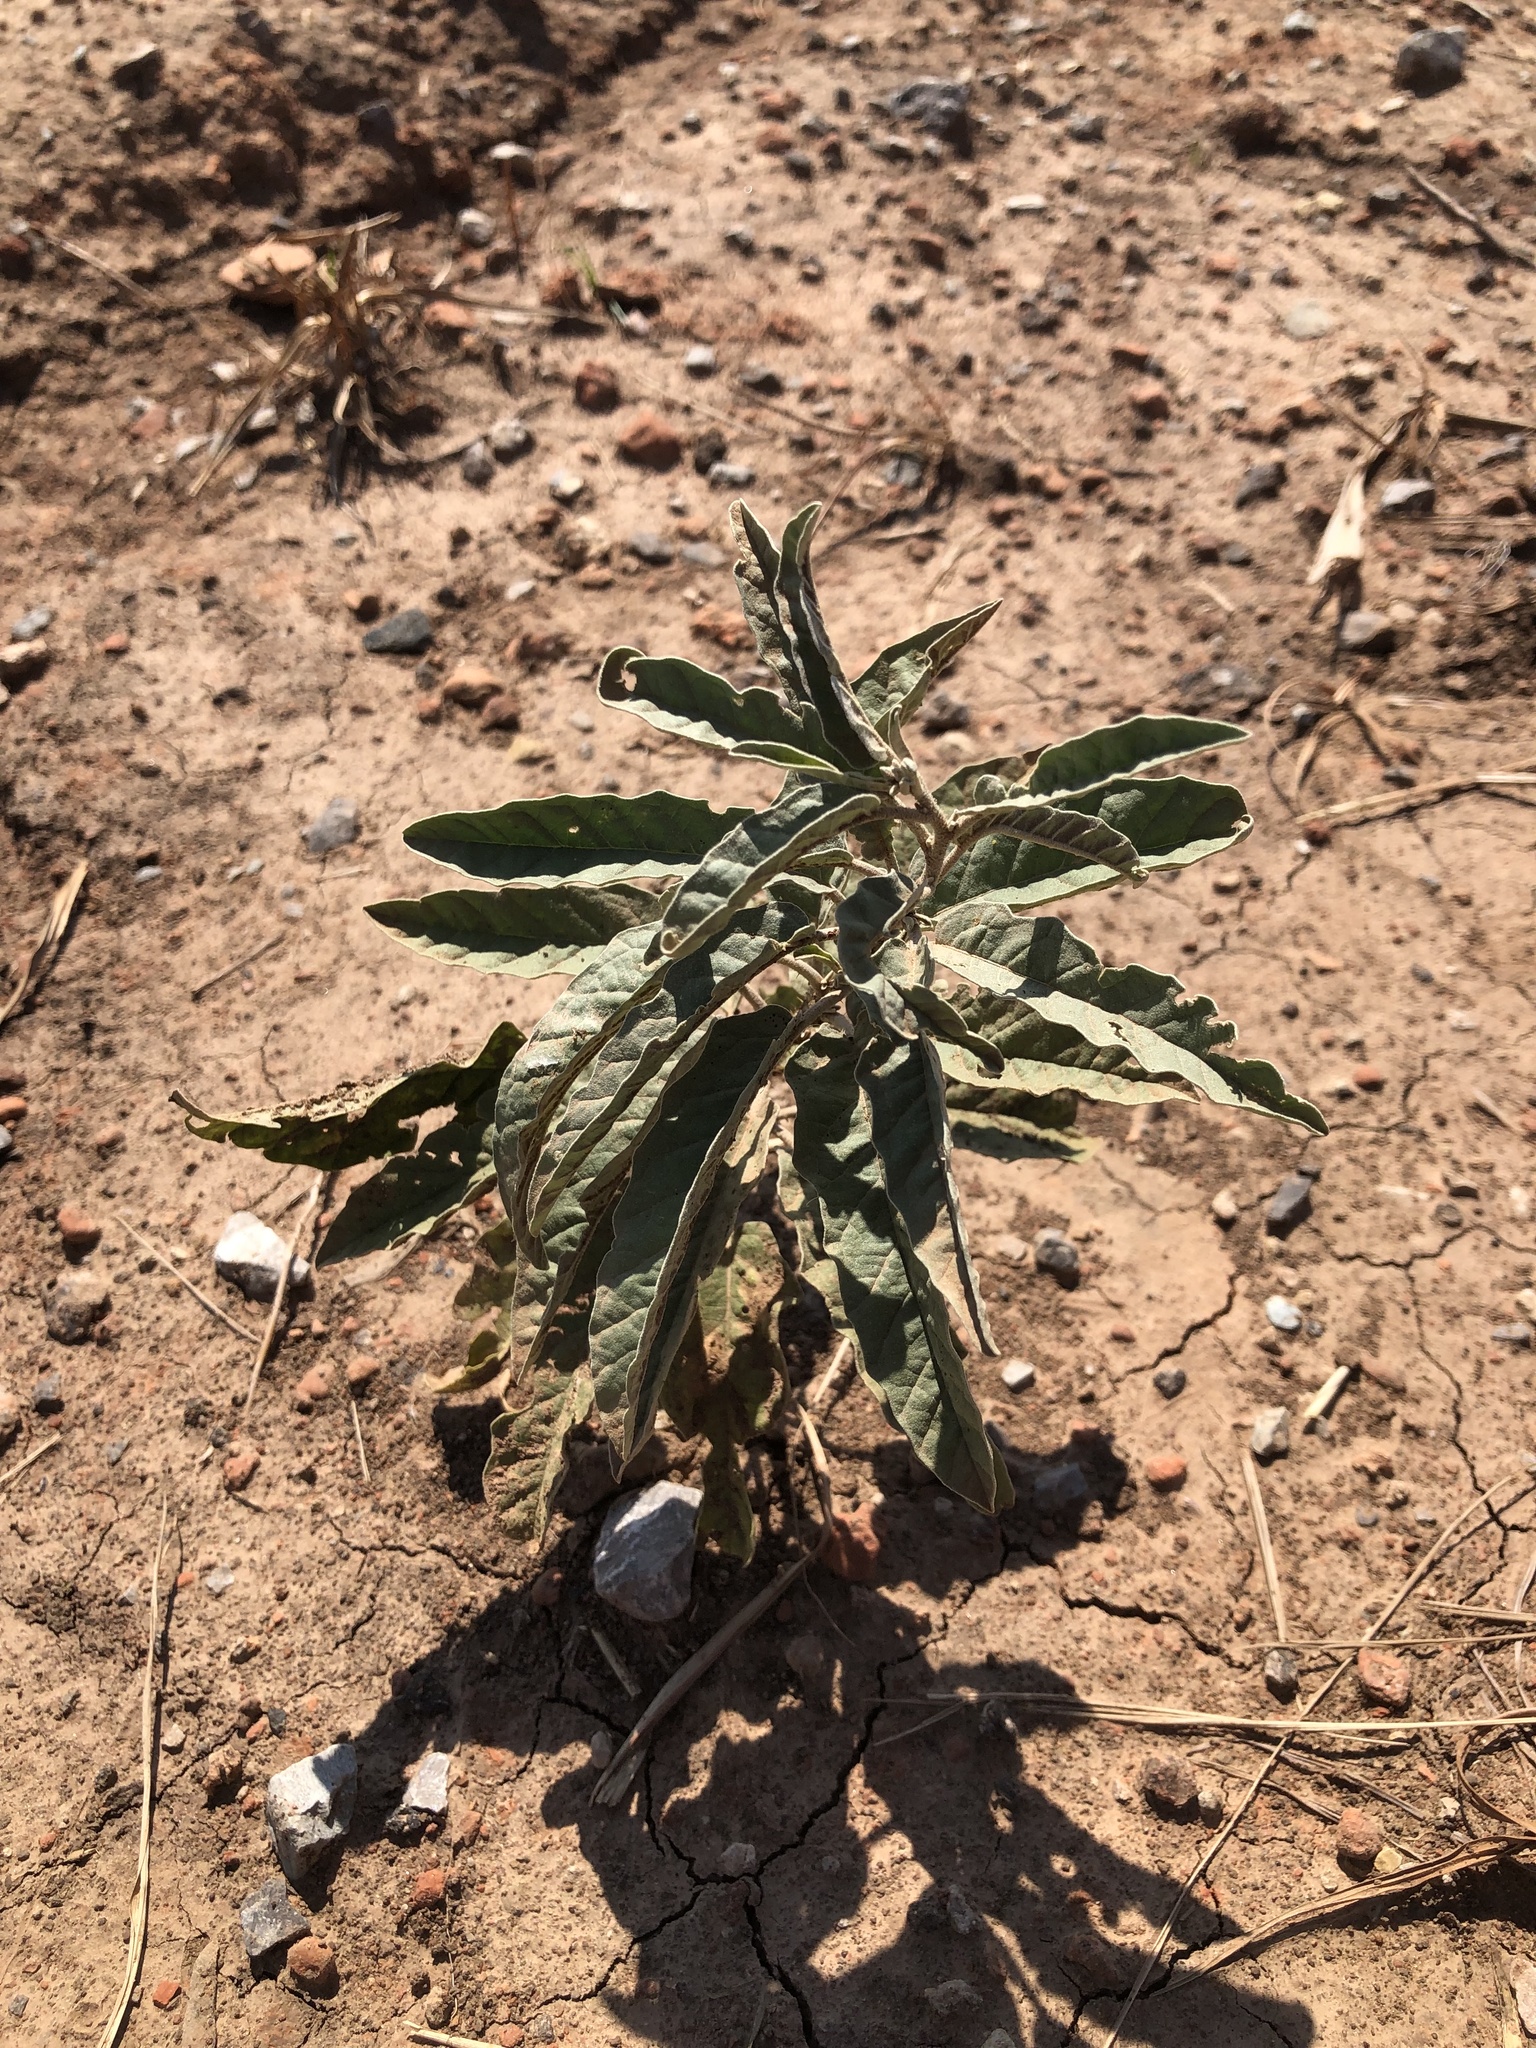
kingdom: Plantae
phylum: Tracheophyta
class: Magnoliopsida
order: Solanales
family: Solanaceae
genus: Solanum
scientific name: Solanum elaeagnifolium
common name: Silverleaf nightshade
